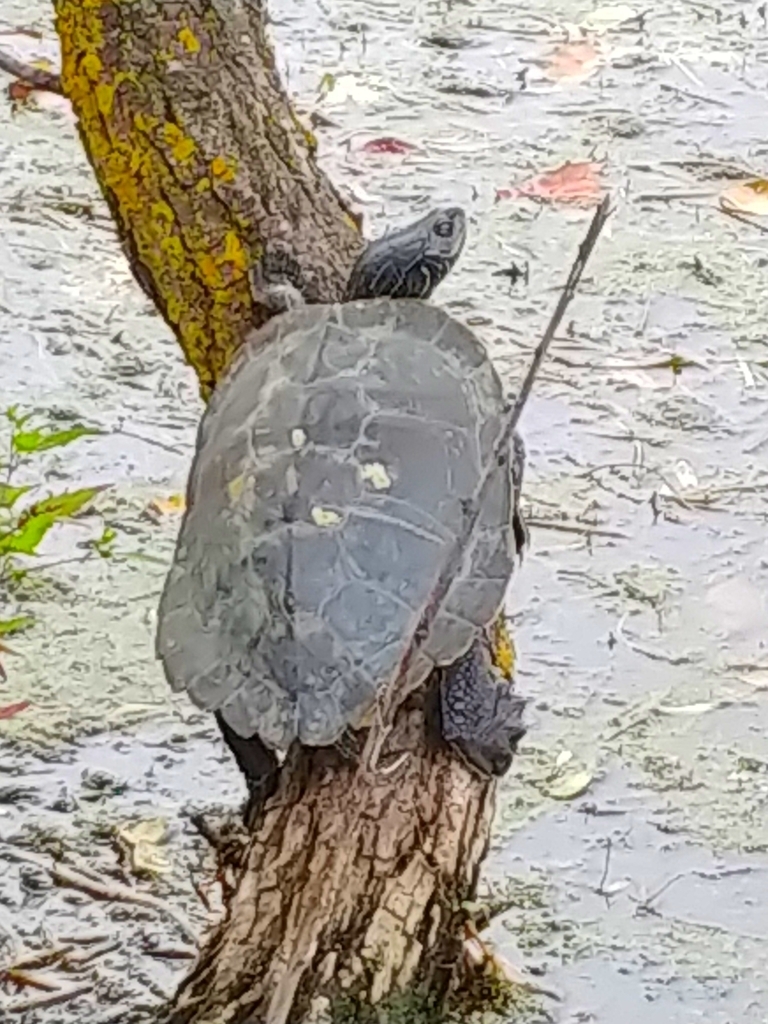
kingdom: Animalia
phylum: Chordata
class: Testudines
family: Emydidae
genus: Graptemys
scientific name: Graptemys geographica
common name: Common map turtle
